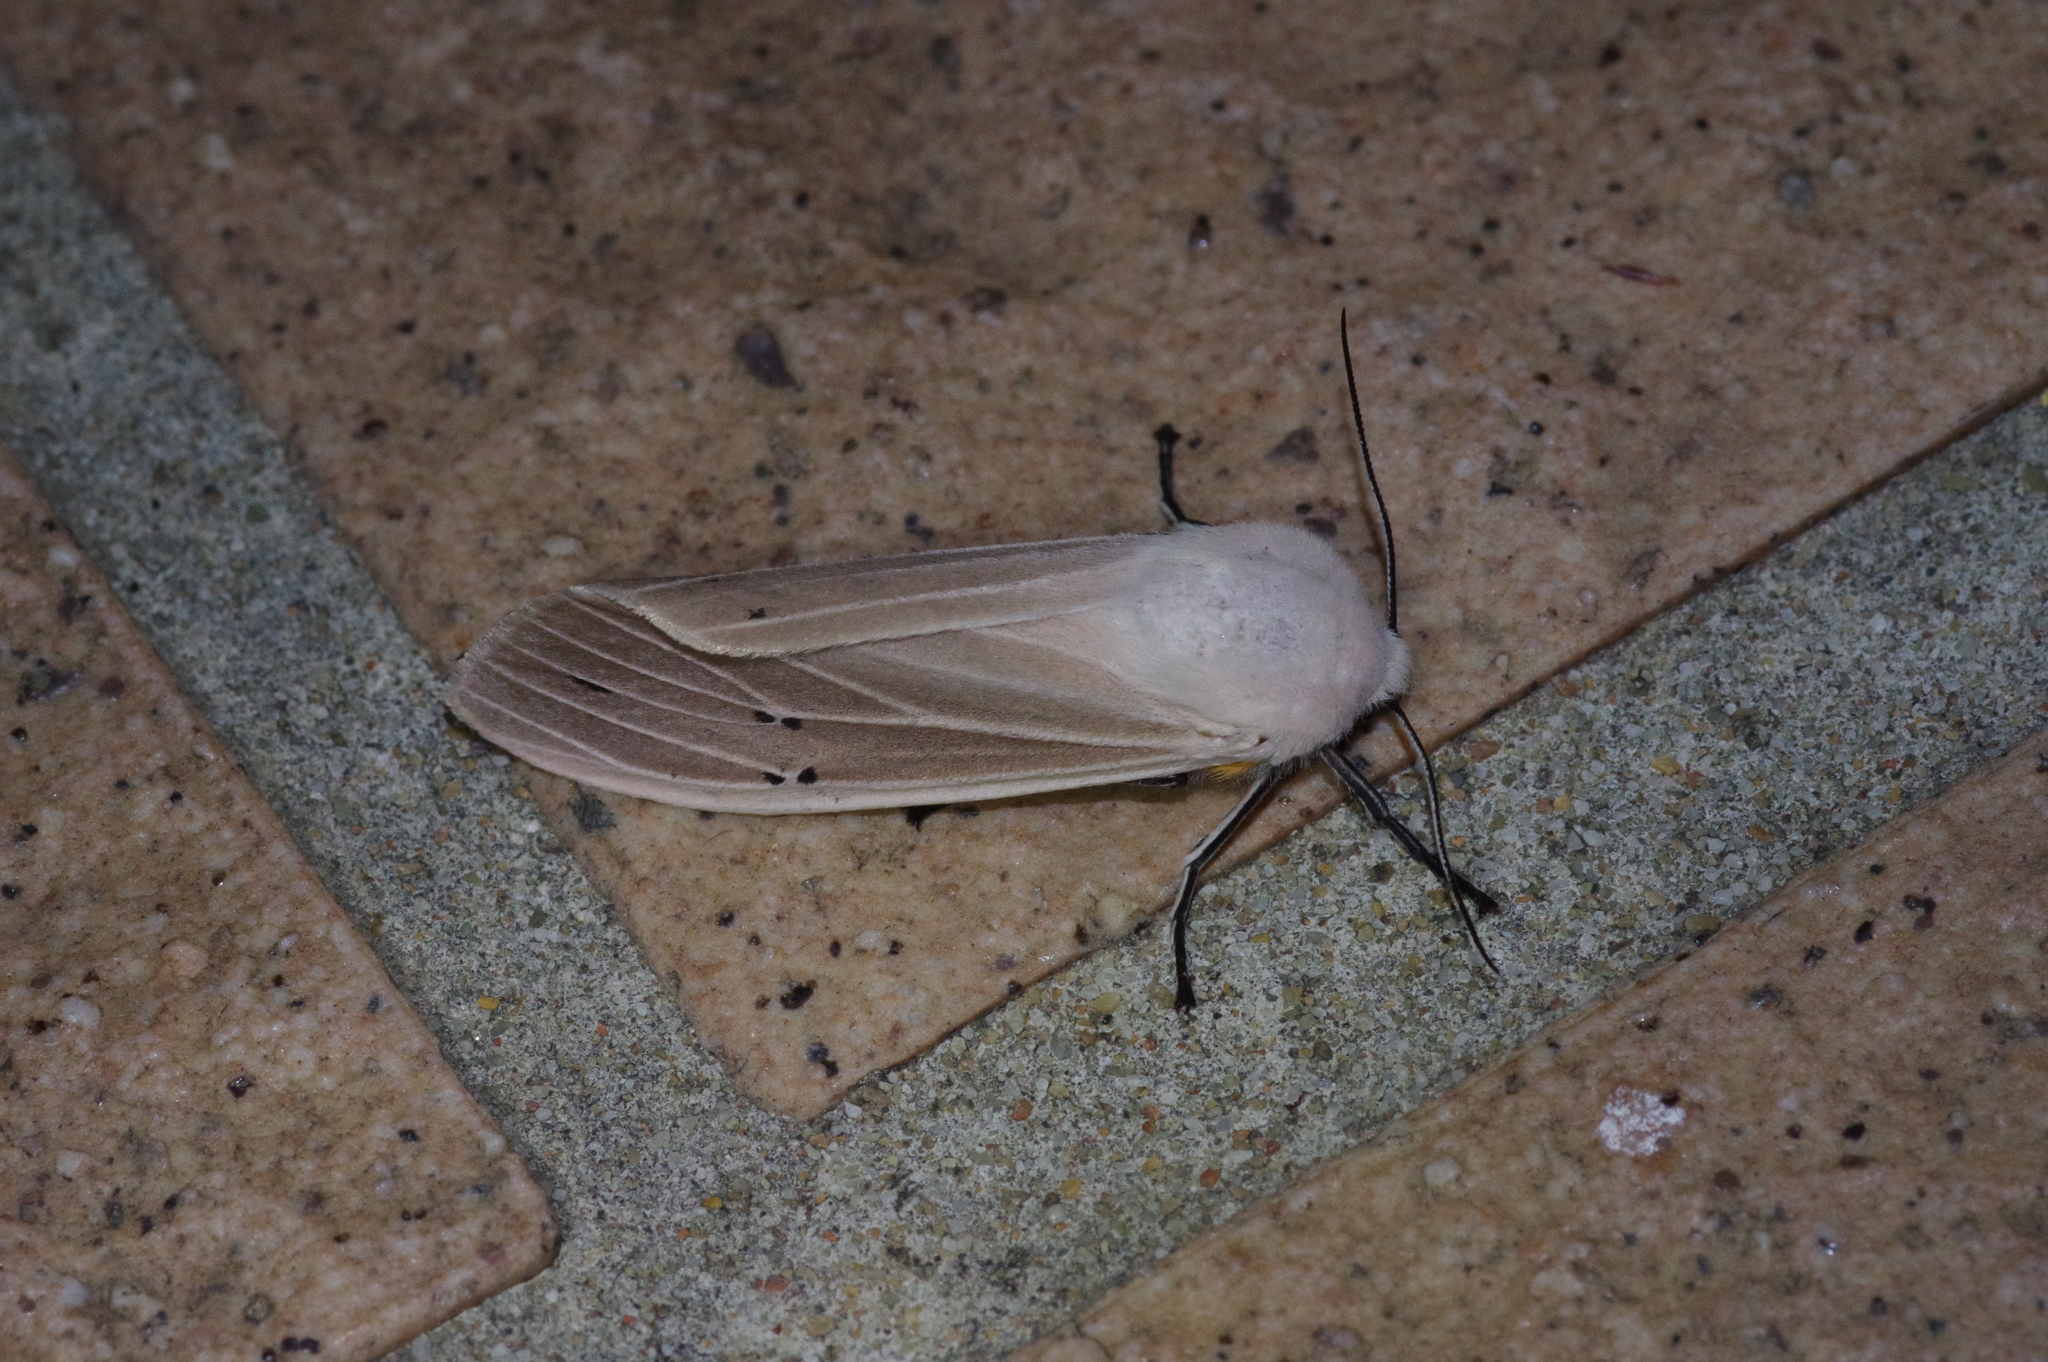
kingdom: Animalia
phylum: Arthropoda
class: Insecta
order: Lepidoptera
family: Erebidae
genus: Creatonotos
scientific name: Creatonotos transiens
